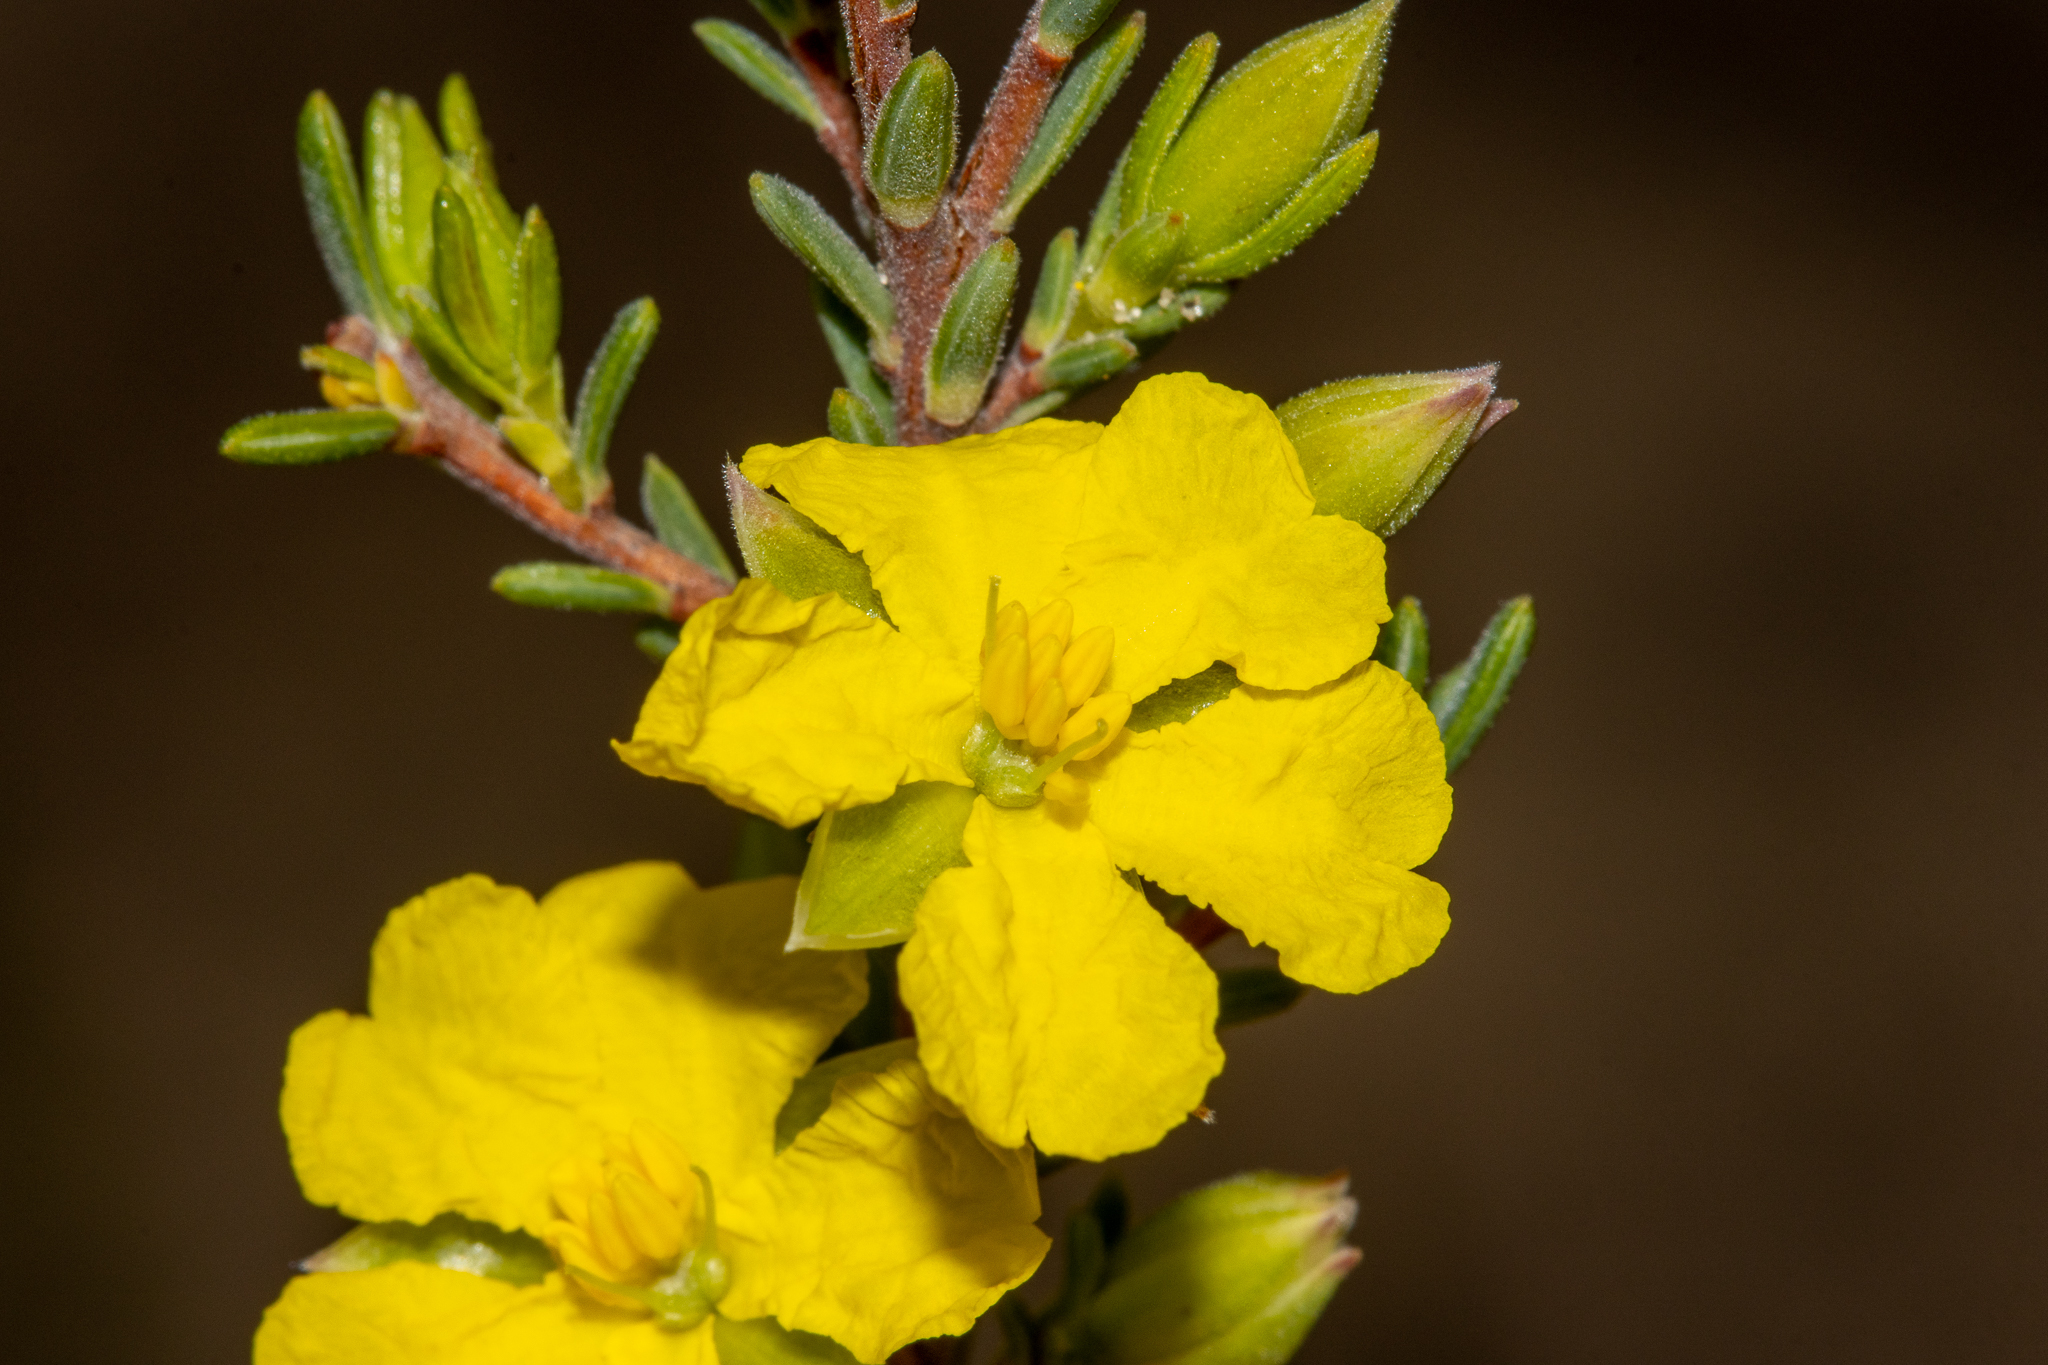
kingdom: Plantae
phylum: Tracheophyta
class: Magnoliopsida
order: Dilleniales
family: Dilleniaceae
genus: Hibbertia
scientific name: Hibbertia devitata
